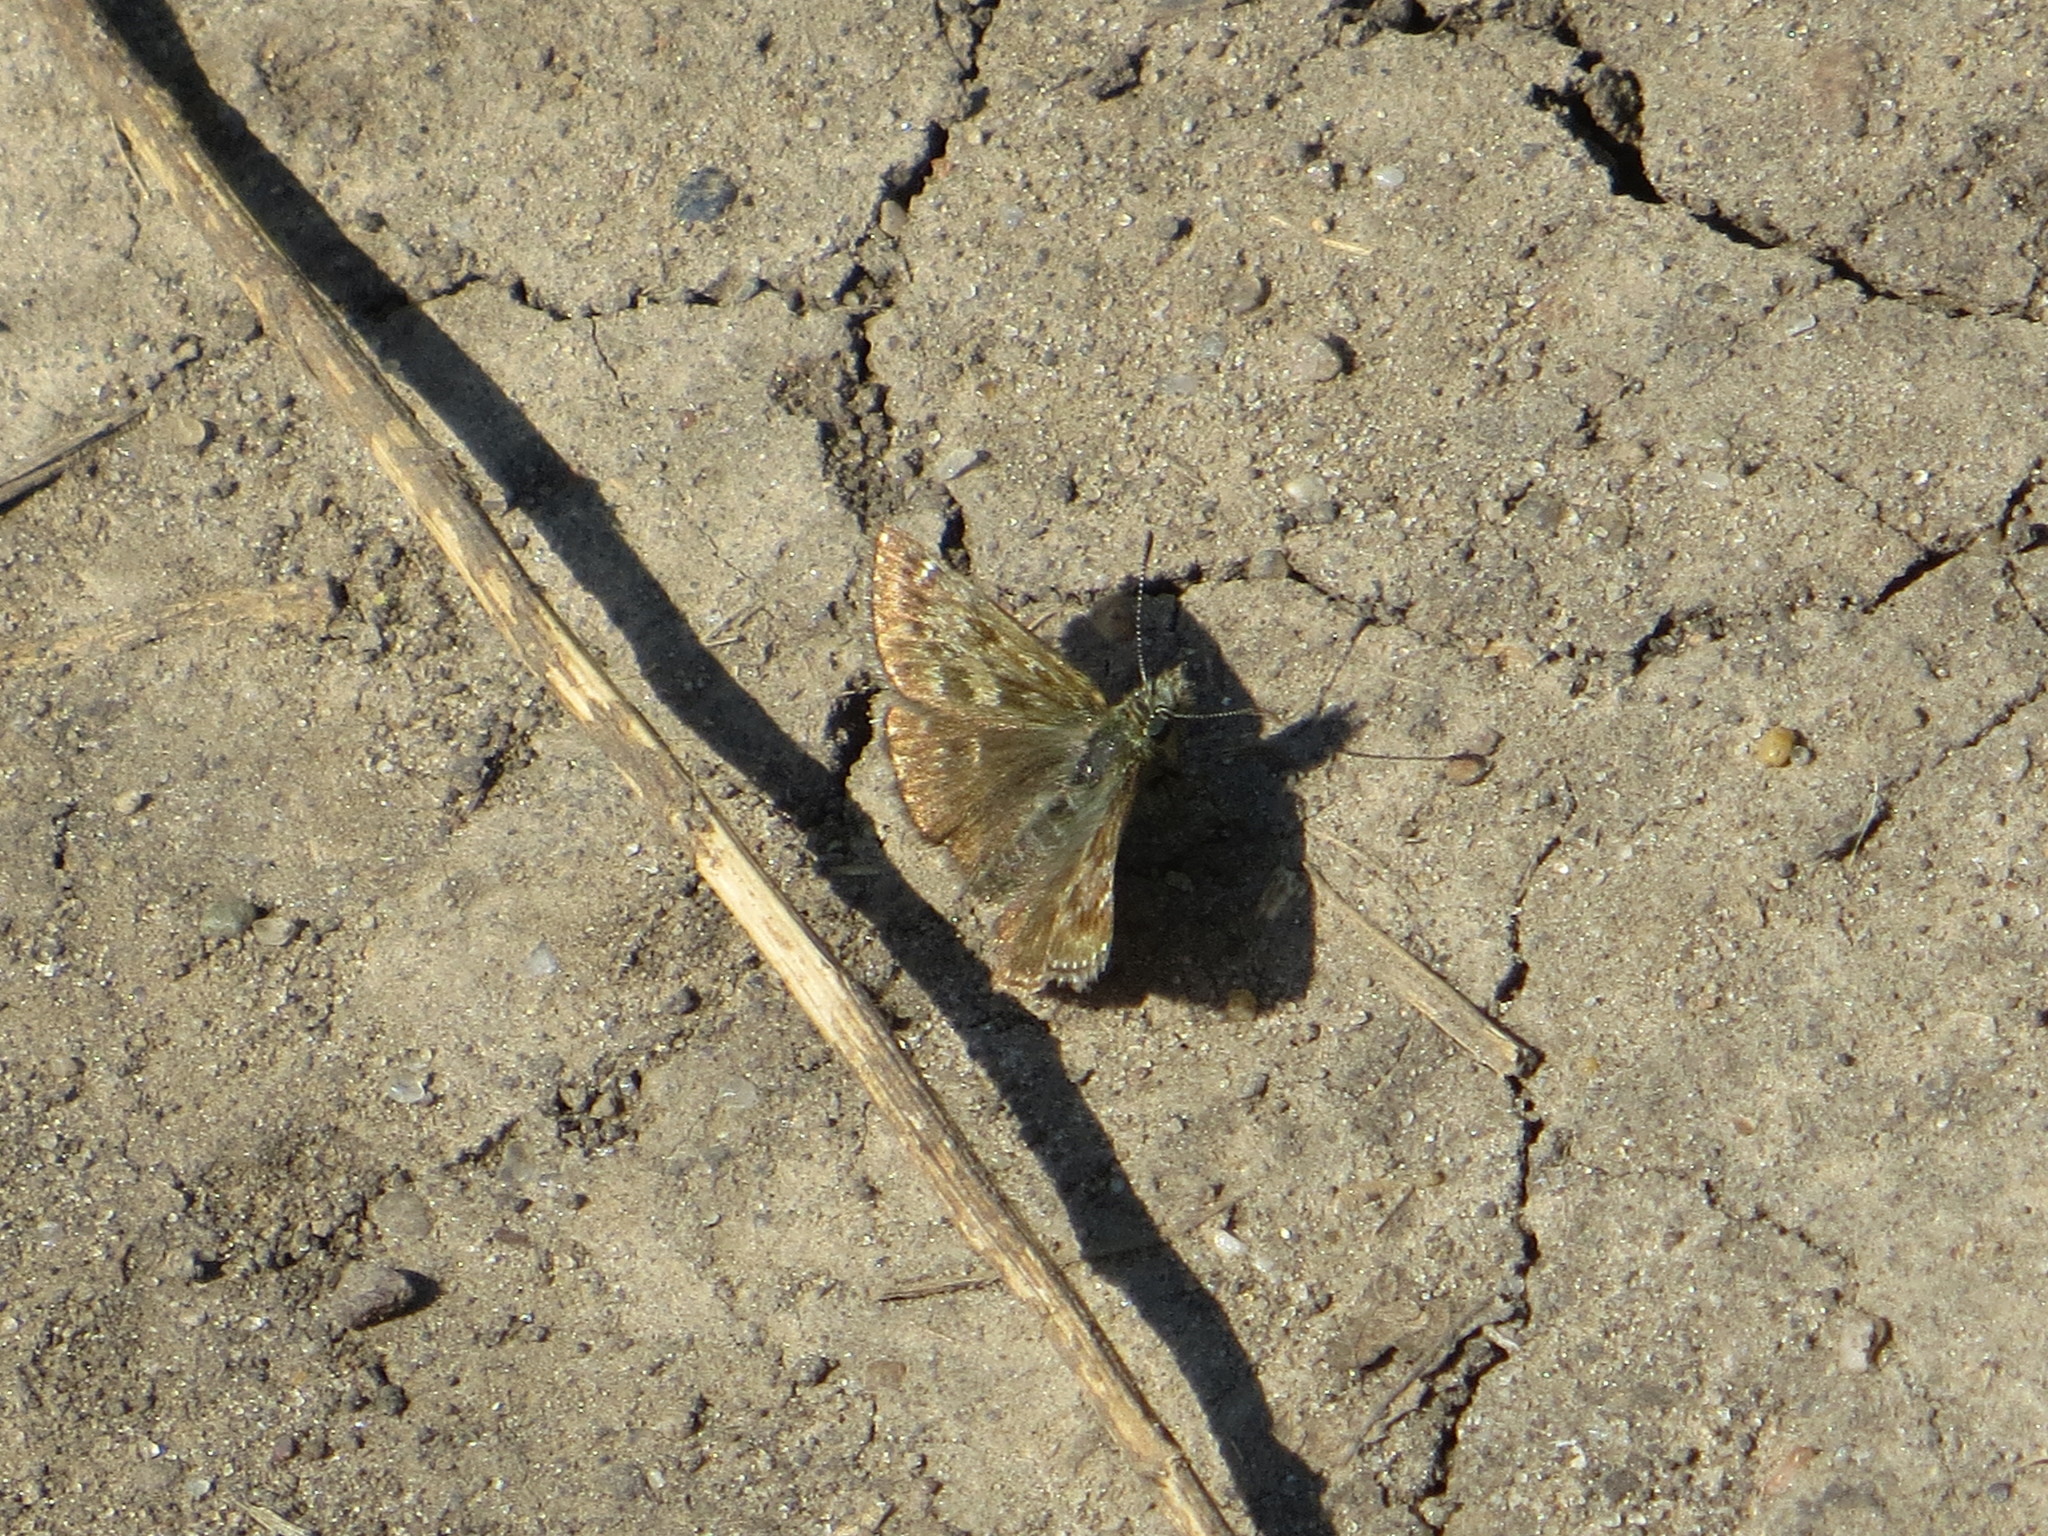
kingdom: Animalia
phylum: Arthropoda
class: Insecta
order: Lepidoptera
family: Hesperiidae
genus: Erynnis
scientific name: Erynnis tages
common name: Dingy skipper
